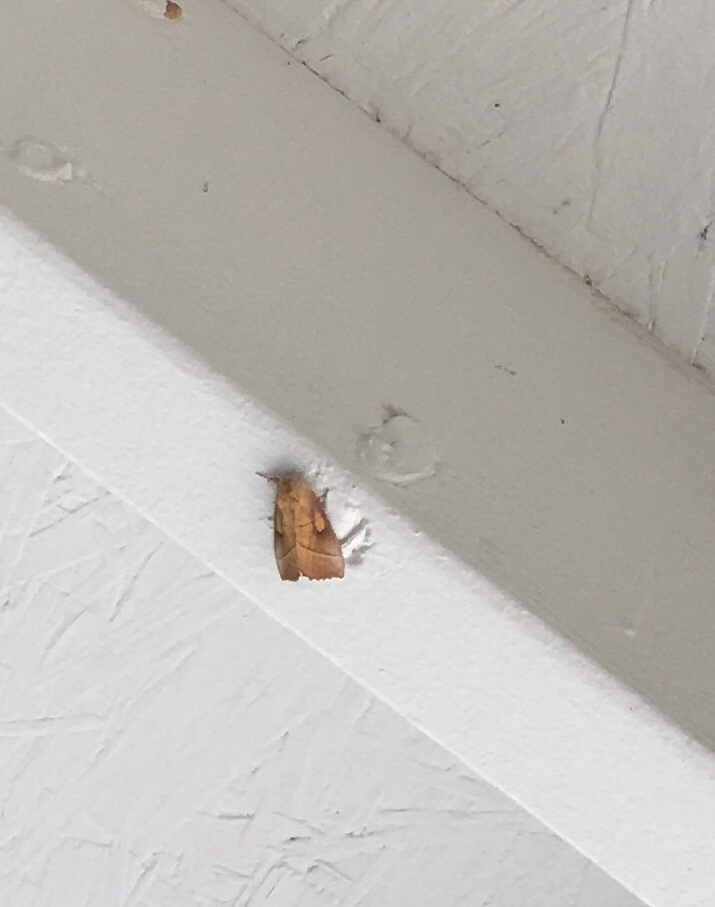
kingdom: Animalia
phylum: Arthropoda
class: Insecta
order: Lepidoptera
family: Notodontidae
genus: Nadata
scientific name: Nadata gibbosa
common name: White-dotted prominent
